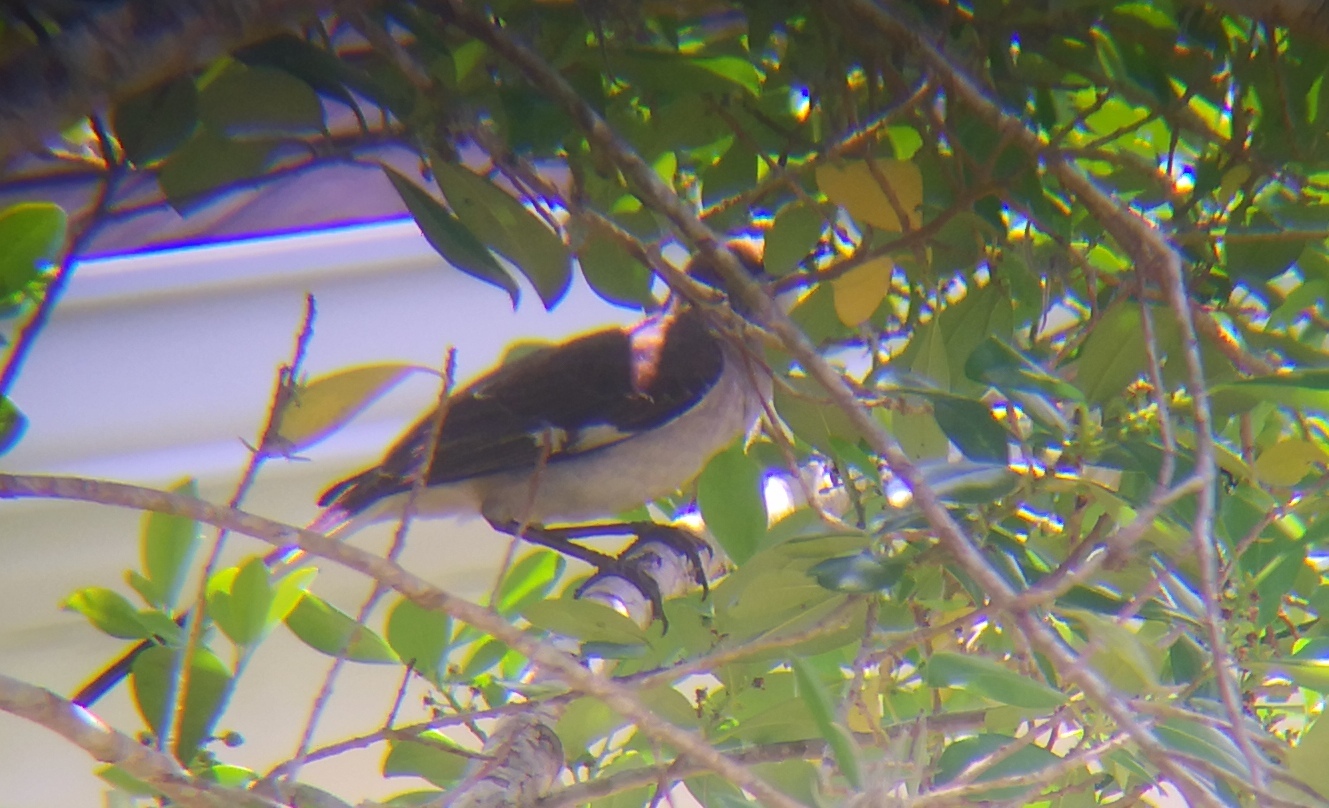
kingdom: Animalia
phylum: Chordata
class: Aves
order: Passeriformes
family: Mimidae
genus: Mimus
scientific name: Mimus polyglottos
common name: Northern mockingbird
